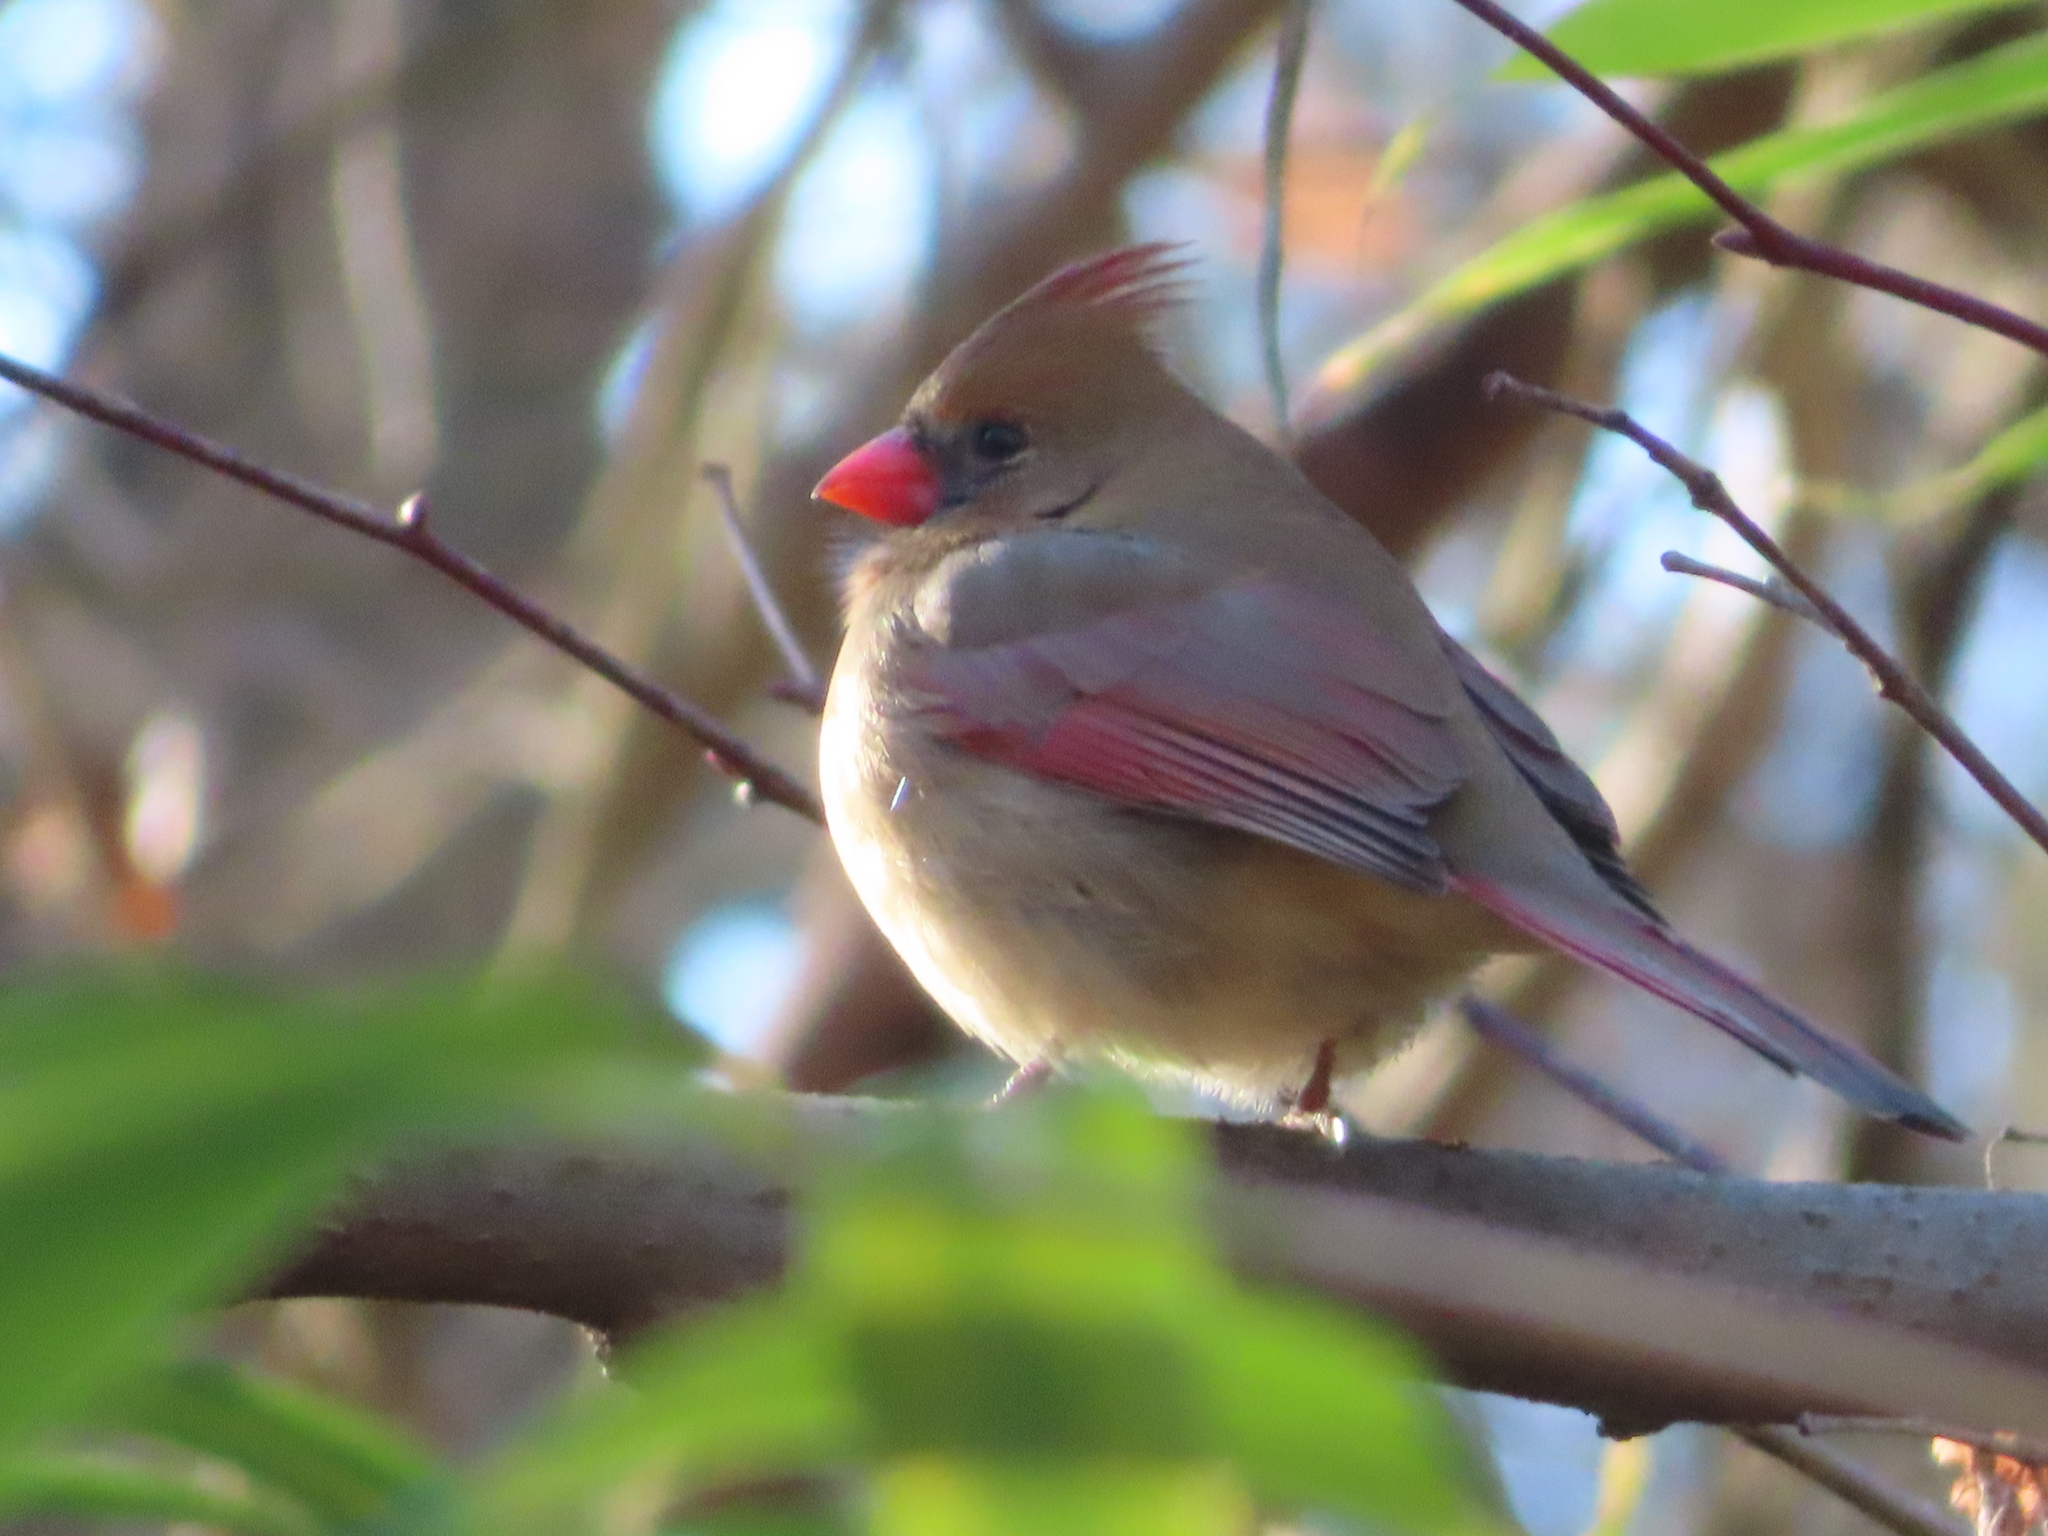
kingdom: Animalia
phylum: Chordata
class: Aves
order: Passeriformes
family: Cardinalidae
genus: Cardinalis
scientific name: Cardinalis cardinalis
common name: Northern cardinal
